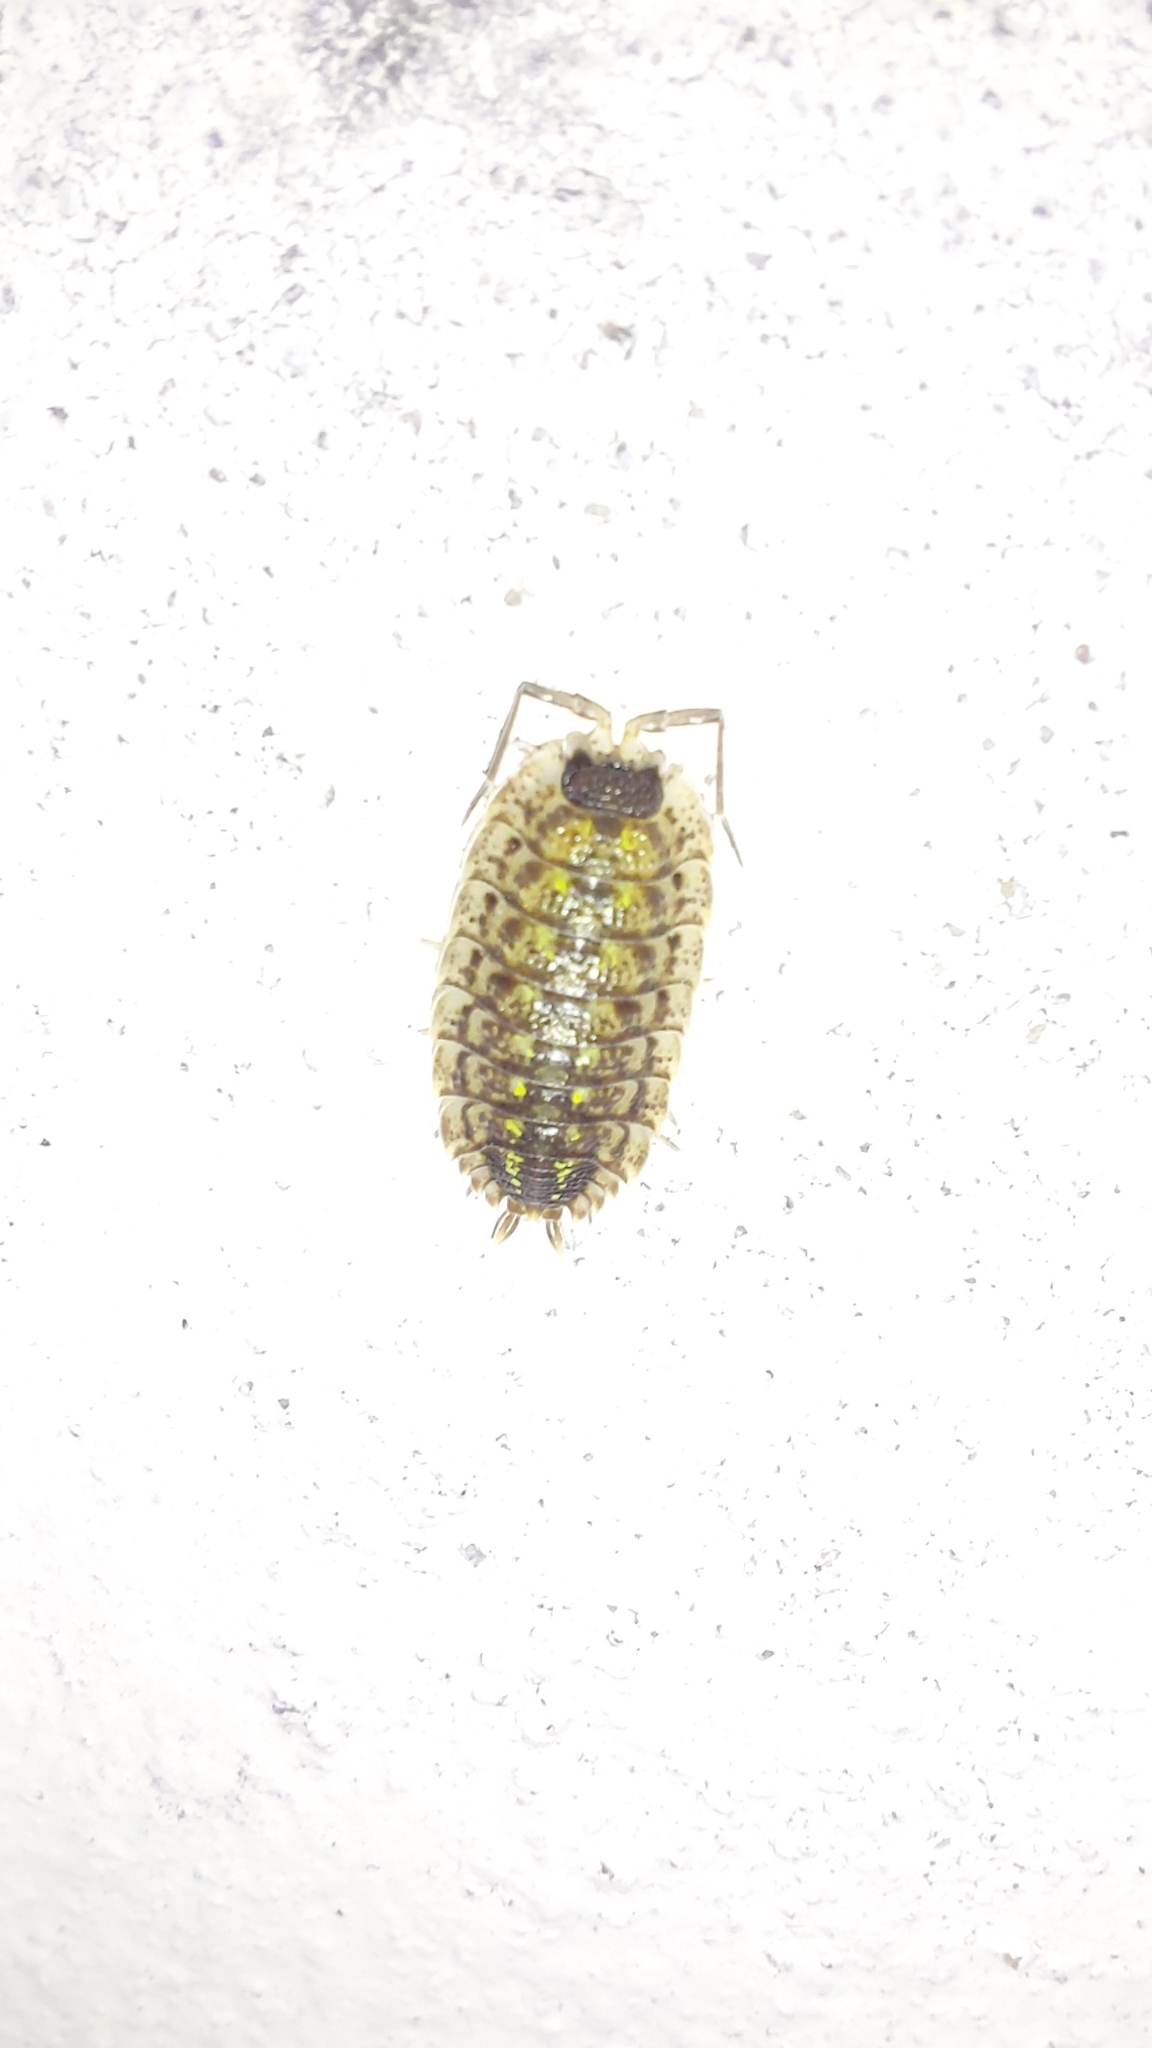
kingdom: Animalia
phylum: Arthropoda
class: Malacostraca
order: Isopoda
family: Porcellionidae
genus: Porcellio
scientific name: Porcellio spinicornis
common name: Painted woodlouse
